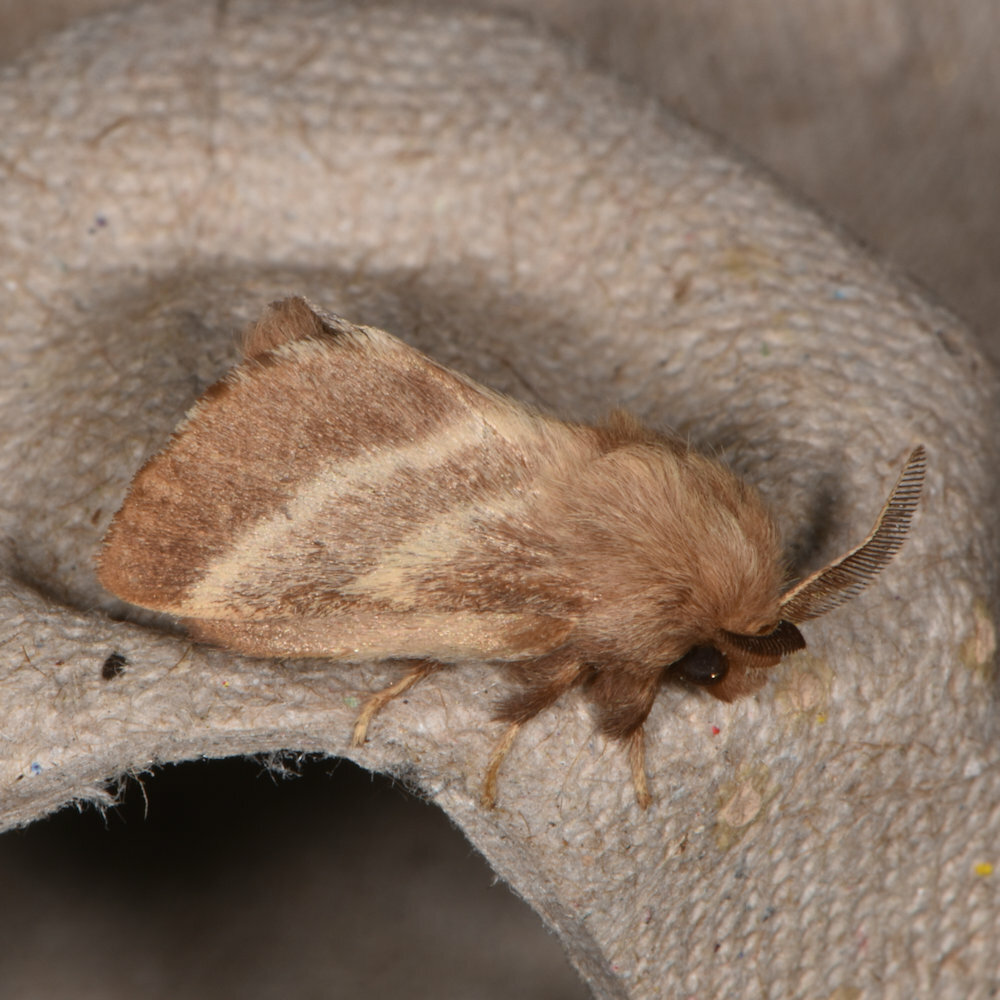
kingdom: Animalia
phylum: Arthropoda
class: Insecta
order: Lepidoptera
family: Lasiocampidae
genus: Malacosoma
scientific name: Malacosoma americana
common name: Eastern tent caterpillar moth
